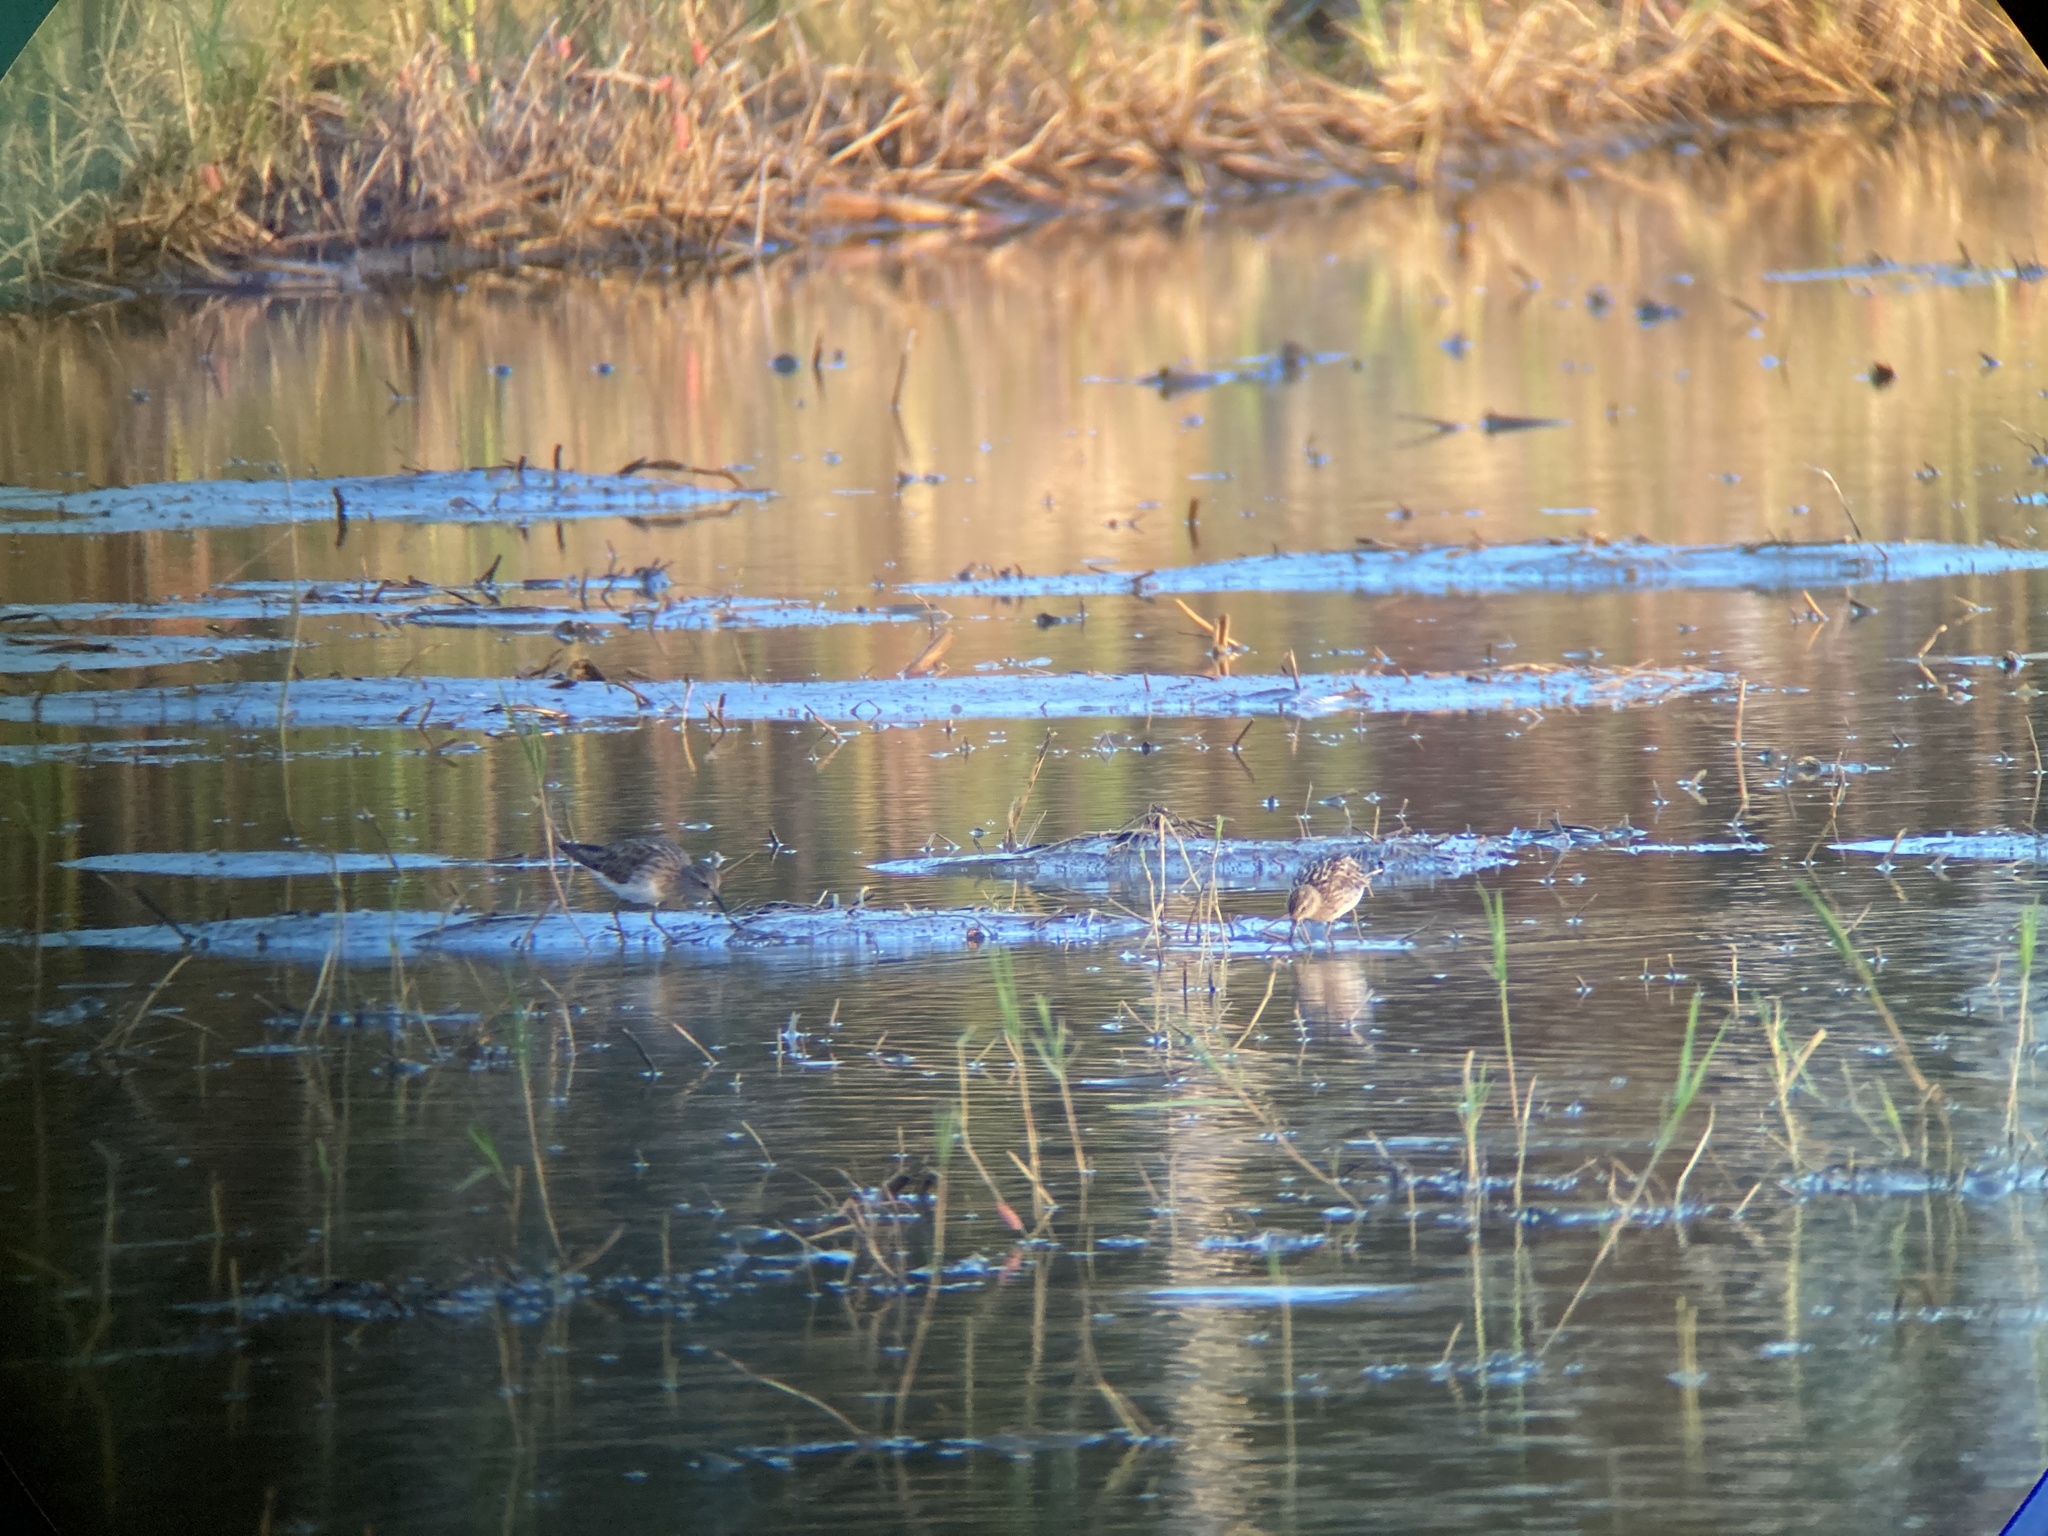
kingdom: Animalia
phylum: Chordata
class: Aves
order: Charadriiformes
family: Scolopacidae
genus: Calidris
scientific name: Calidris subminuta
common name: Long-toed stint
